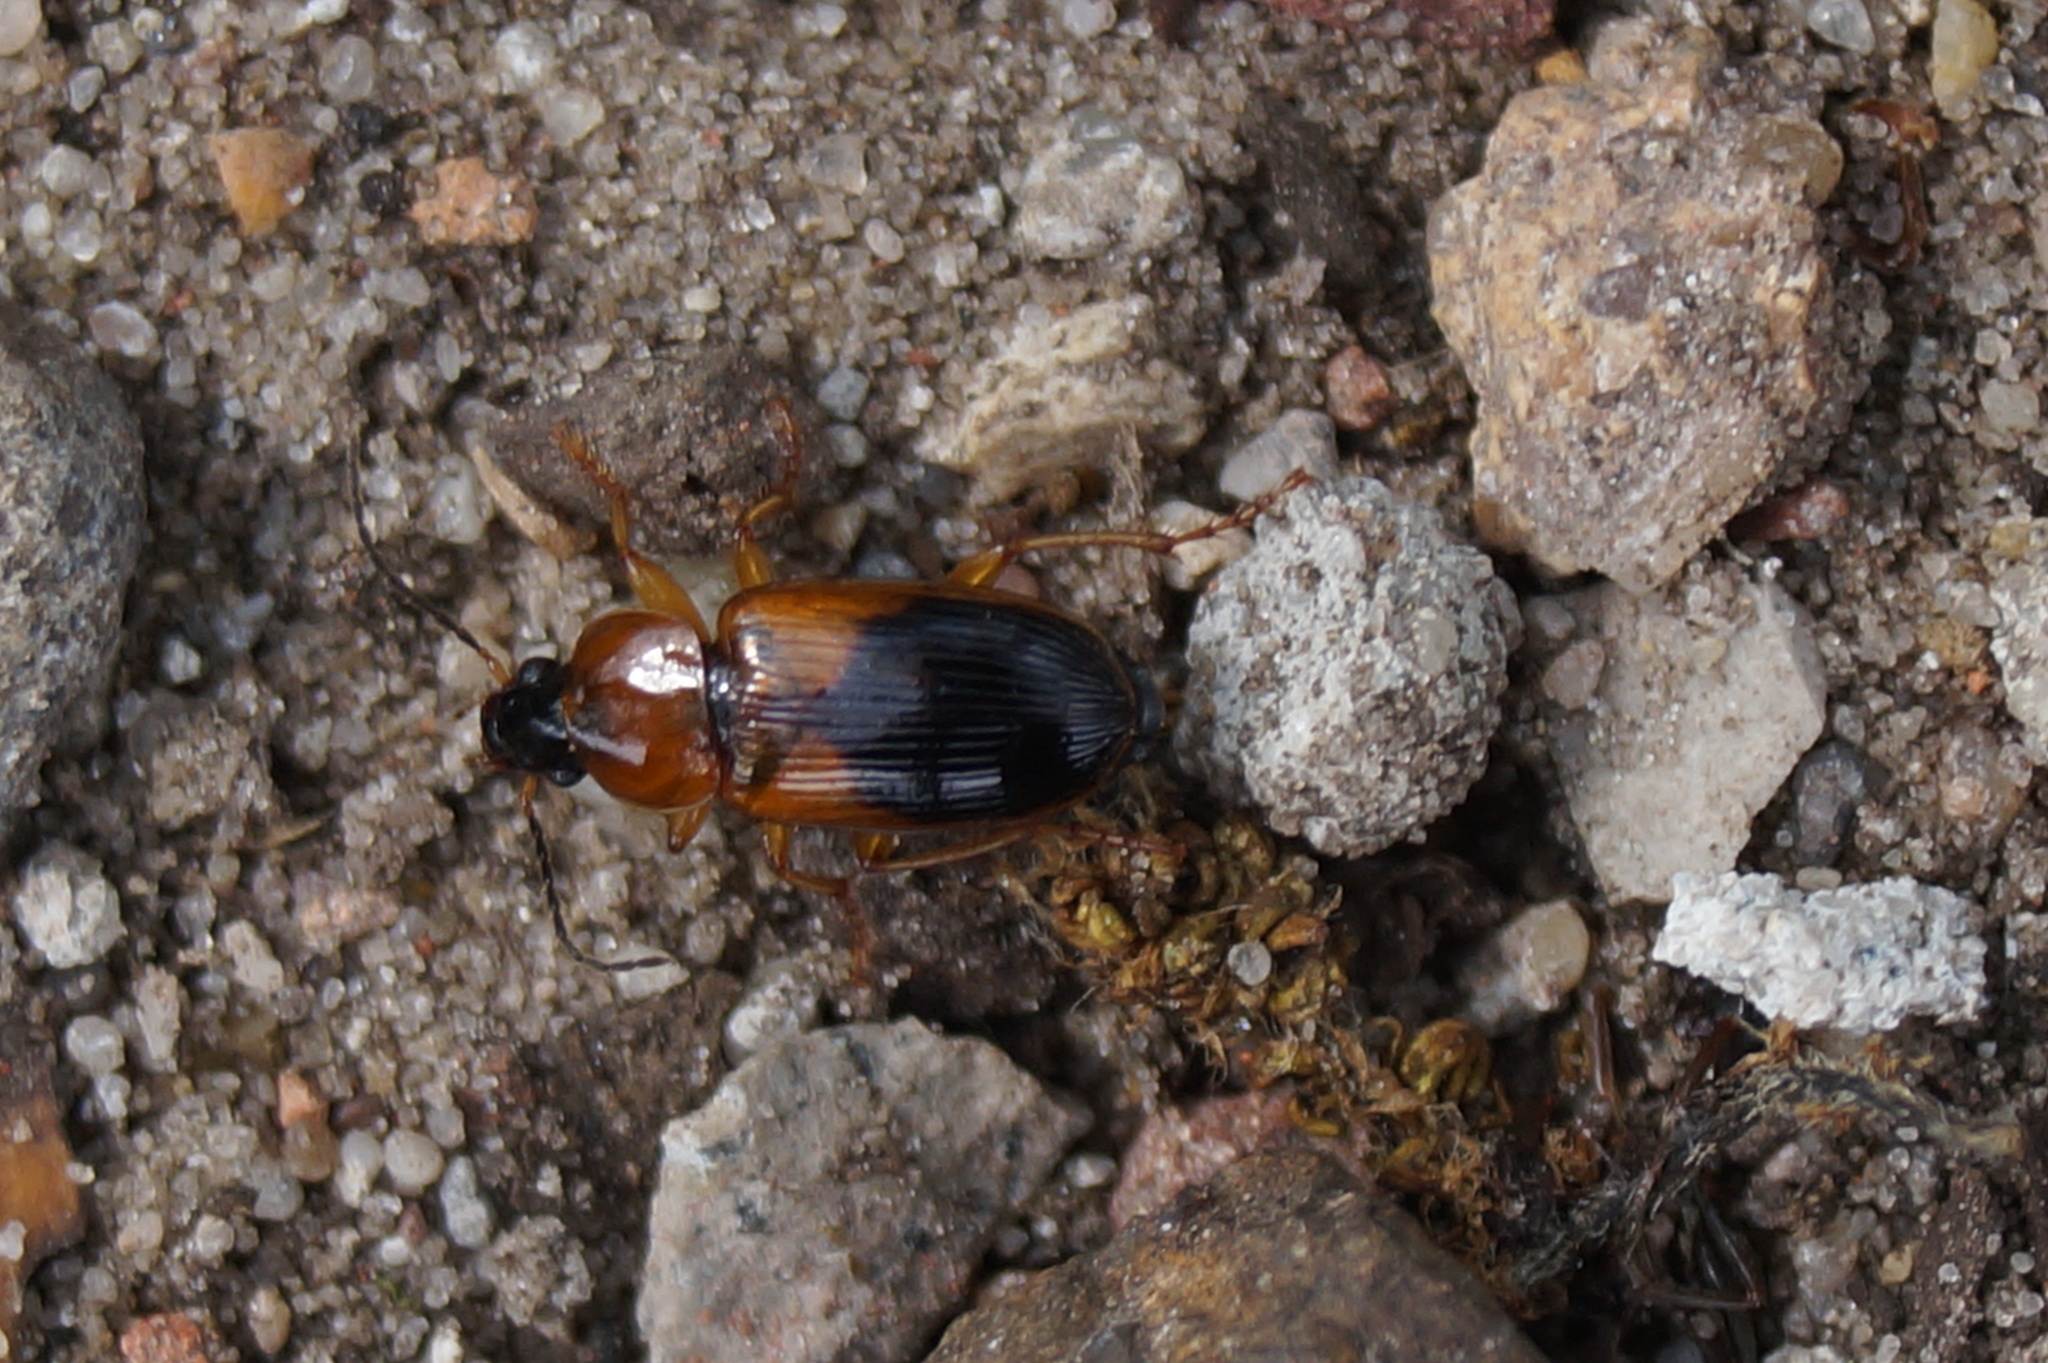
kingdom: Animalia
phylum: Arthropoda
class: Insecta
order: Coleoptera
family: Carabidae
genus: Stenolophus
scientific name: Stenolophus teutonus
